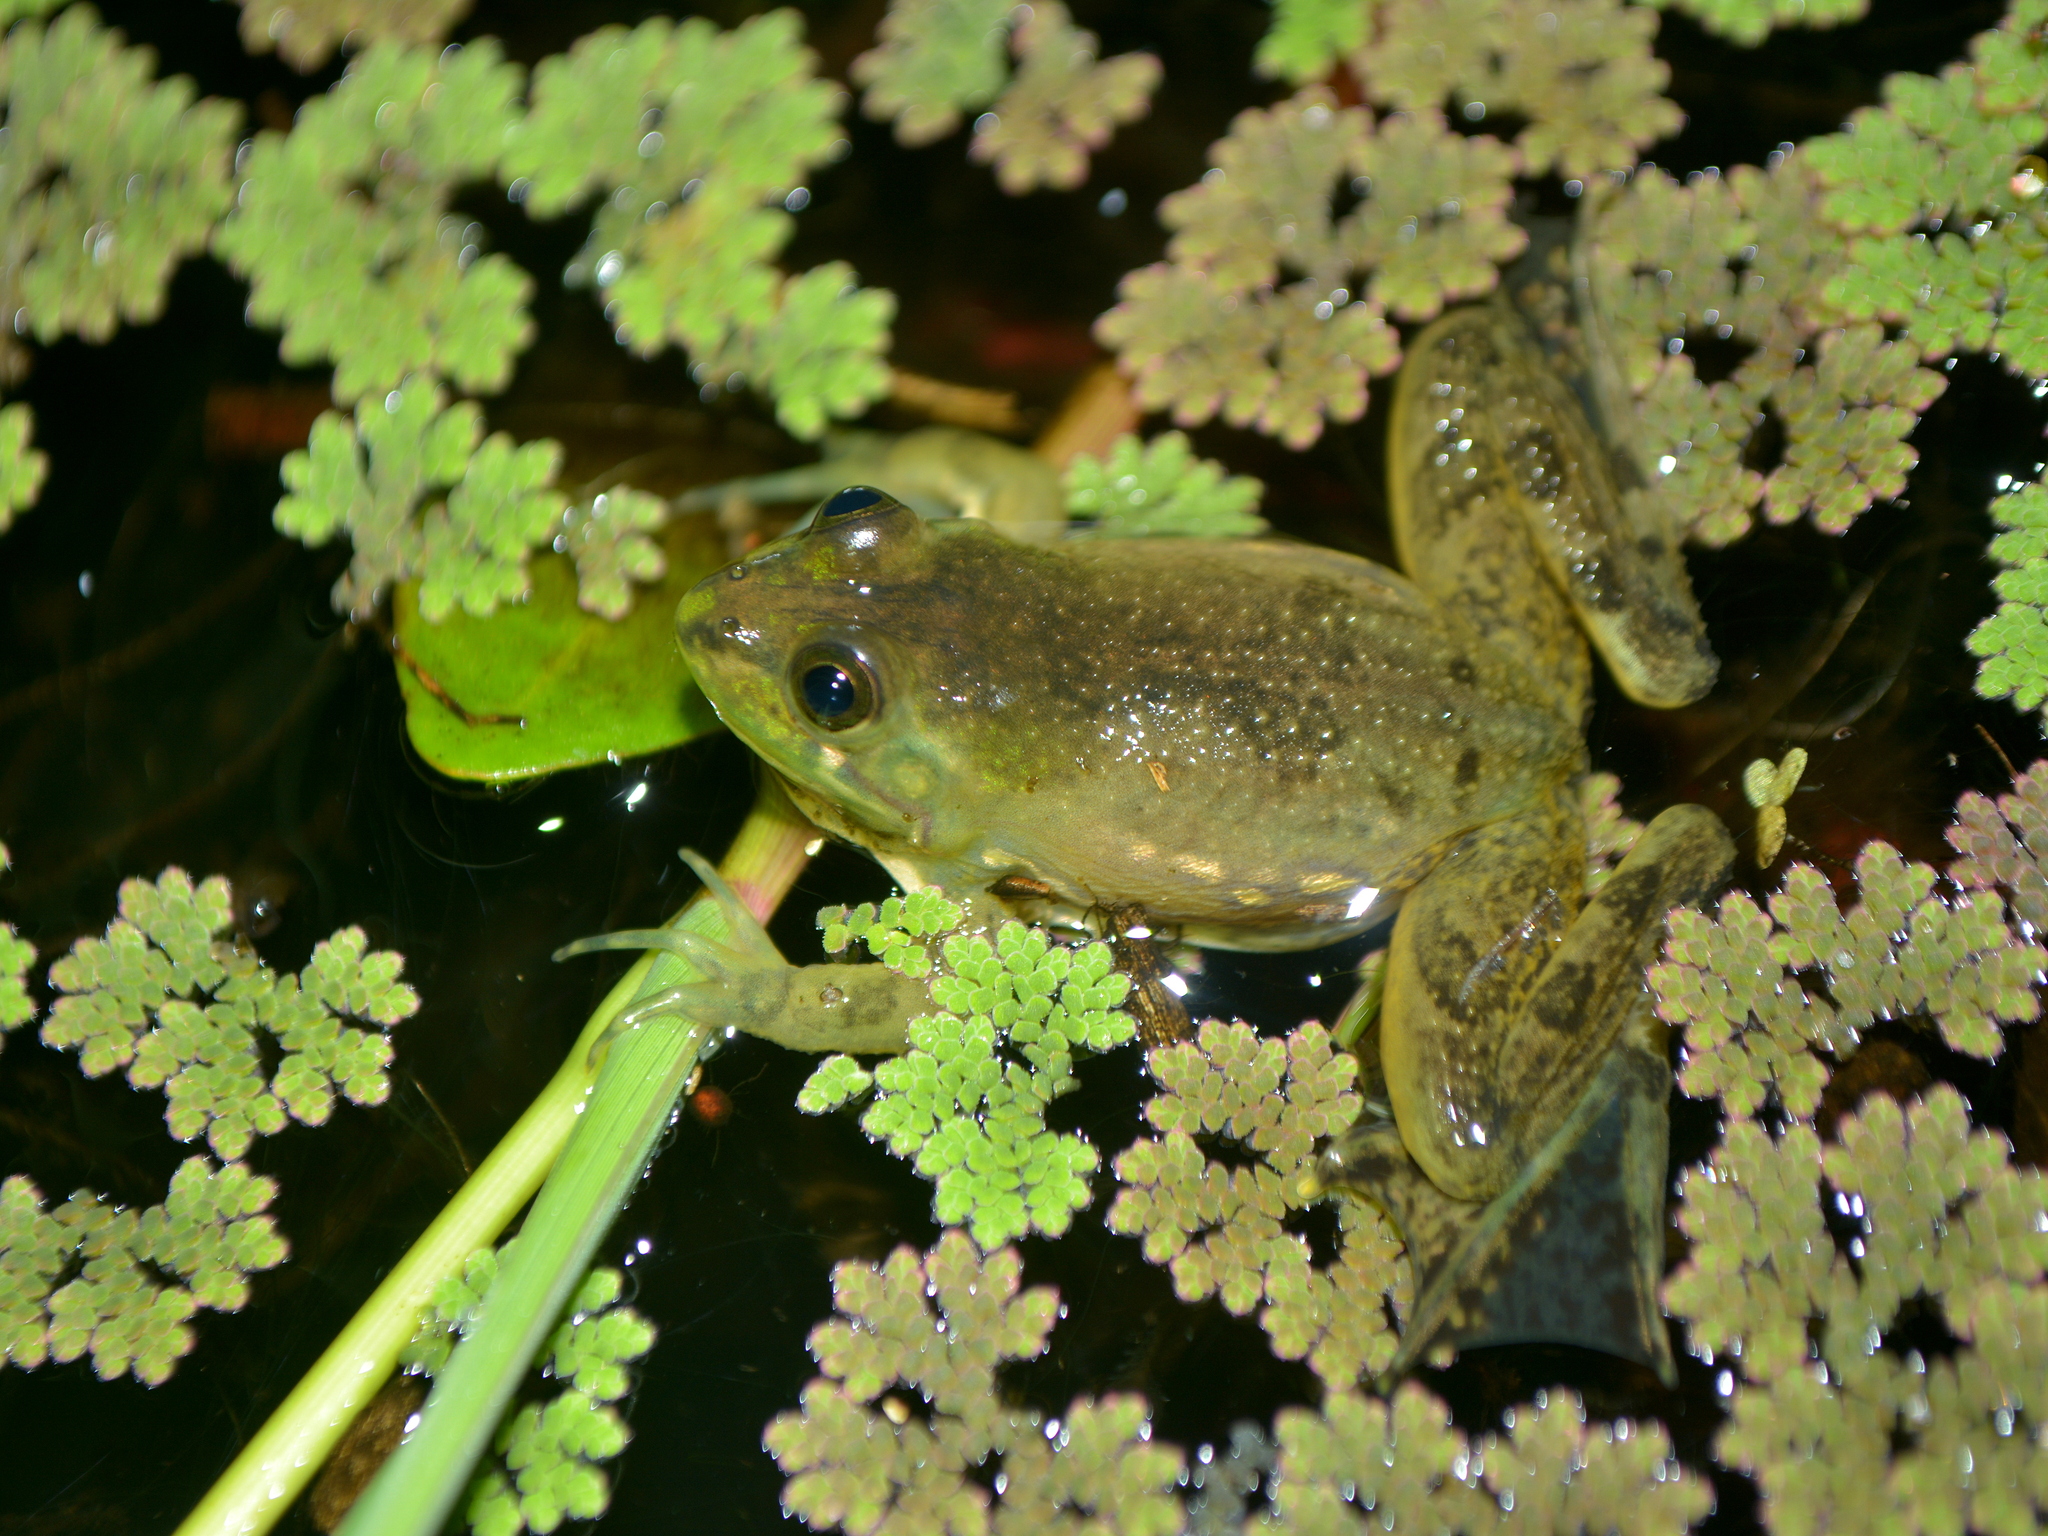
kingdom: Animalia
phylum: Chordata
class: Amphibia
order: Anura
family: Hylidae
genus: Pseudis
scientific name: Pseudis minuta
